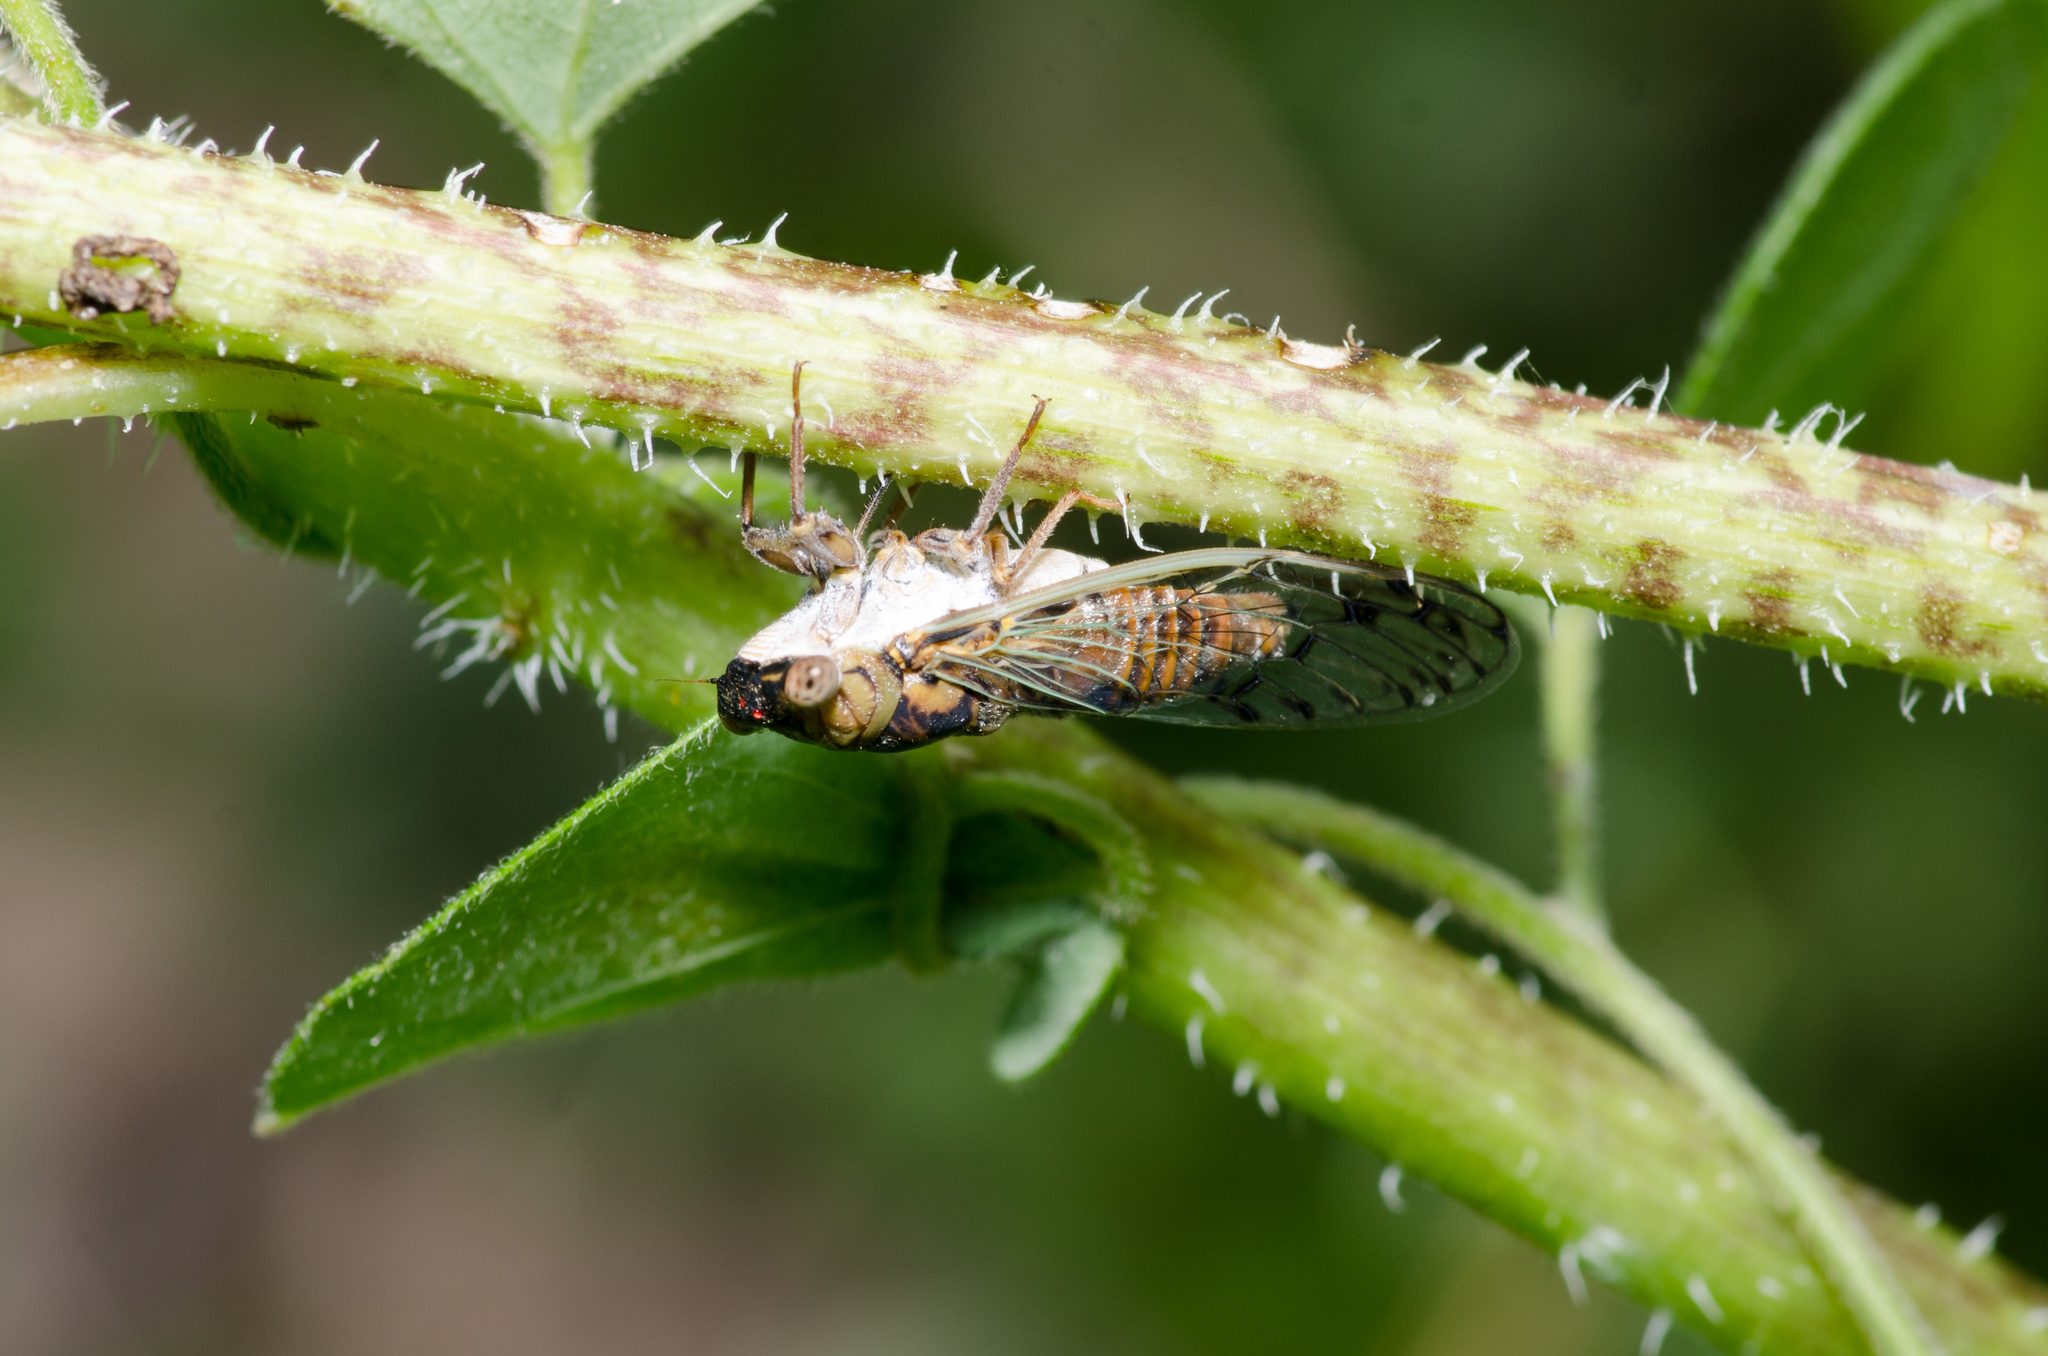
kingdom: Animalia
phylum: Arthropoda
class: Insecta
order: Hemiptera
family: Cicadidae
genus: Pacarina
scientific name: Pacarina puella
